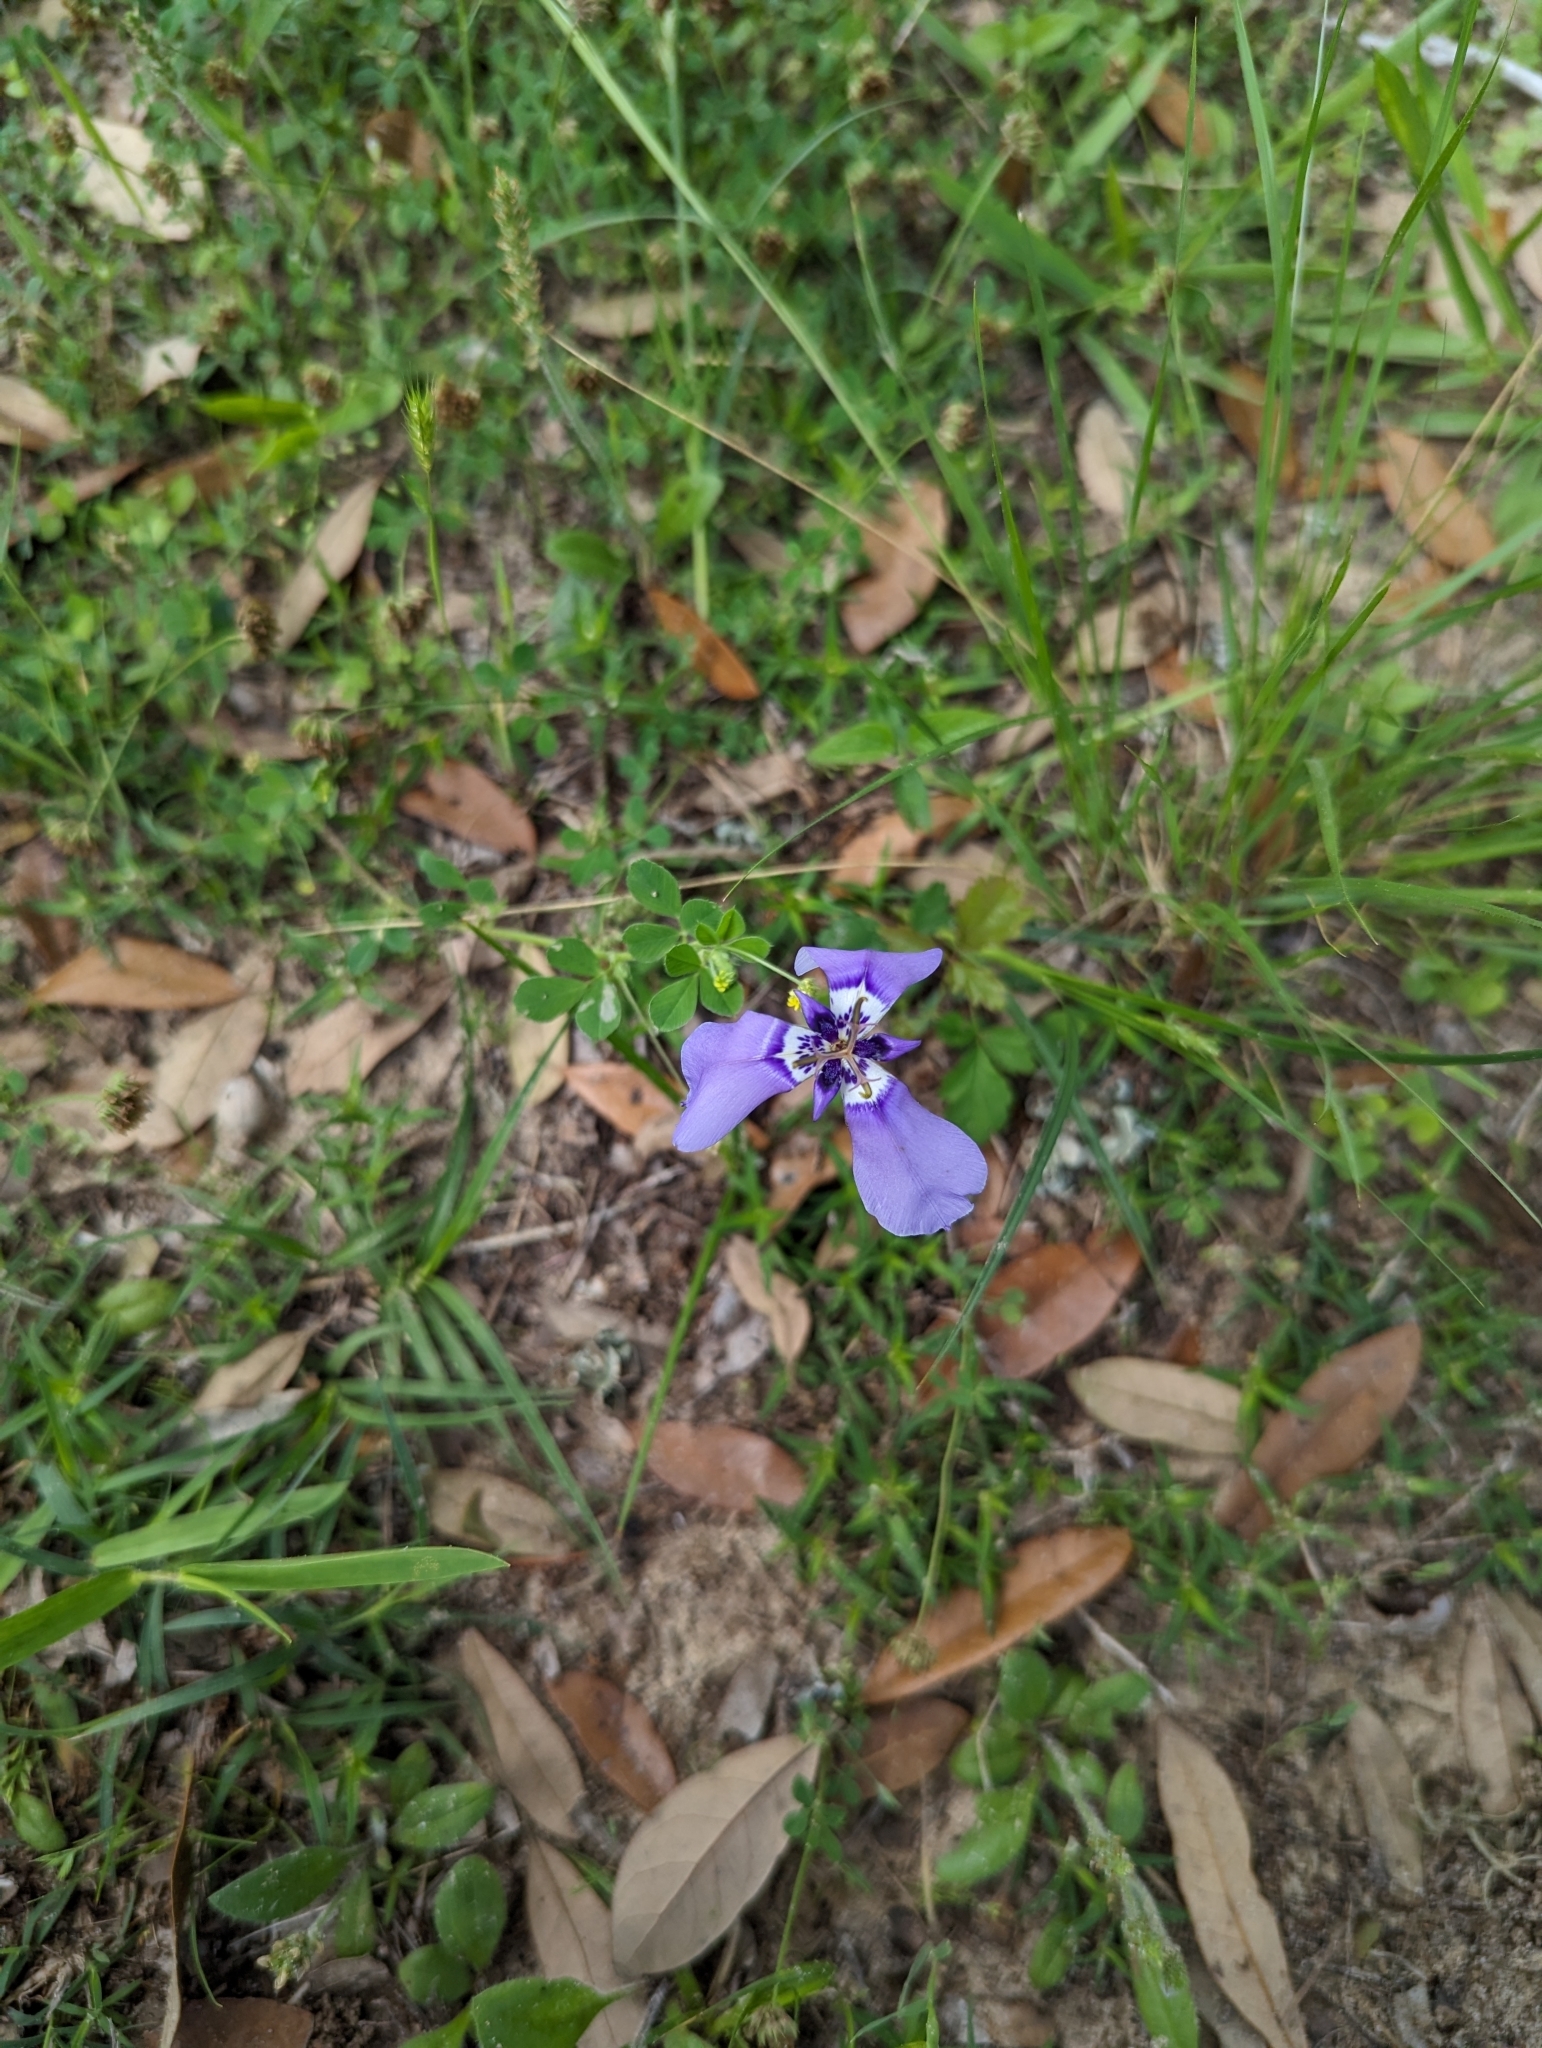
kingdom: Plantae
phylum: Tracheophyta
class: Liliopsida
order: Asparagales
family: Iridaceae
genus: Herbertia
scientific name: Herbertia lahue
